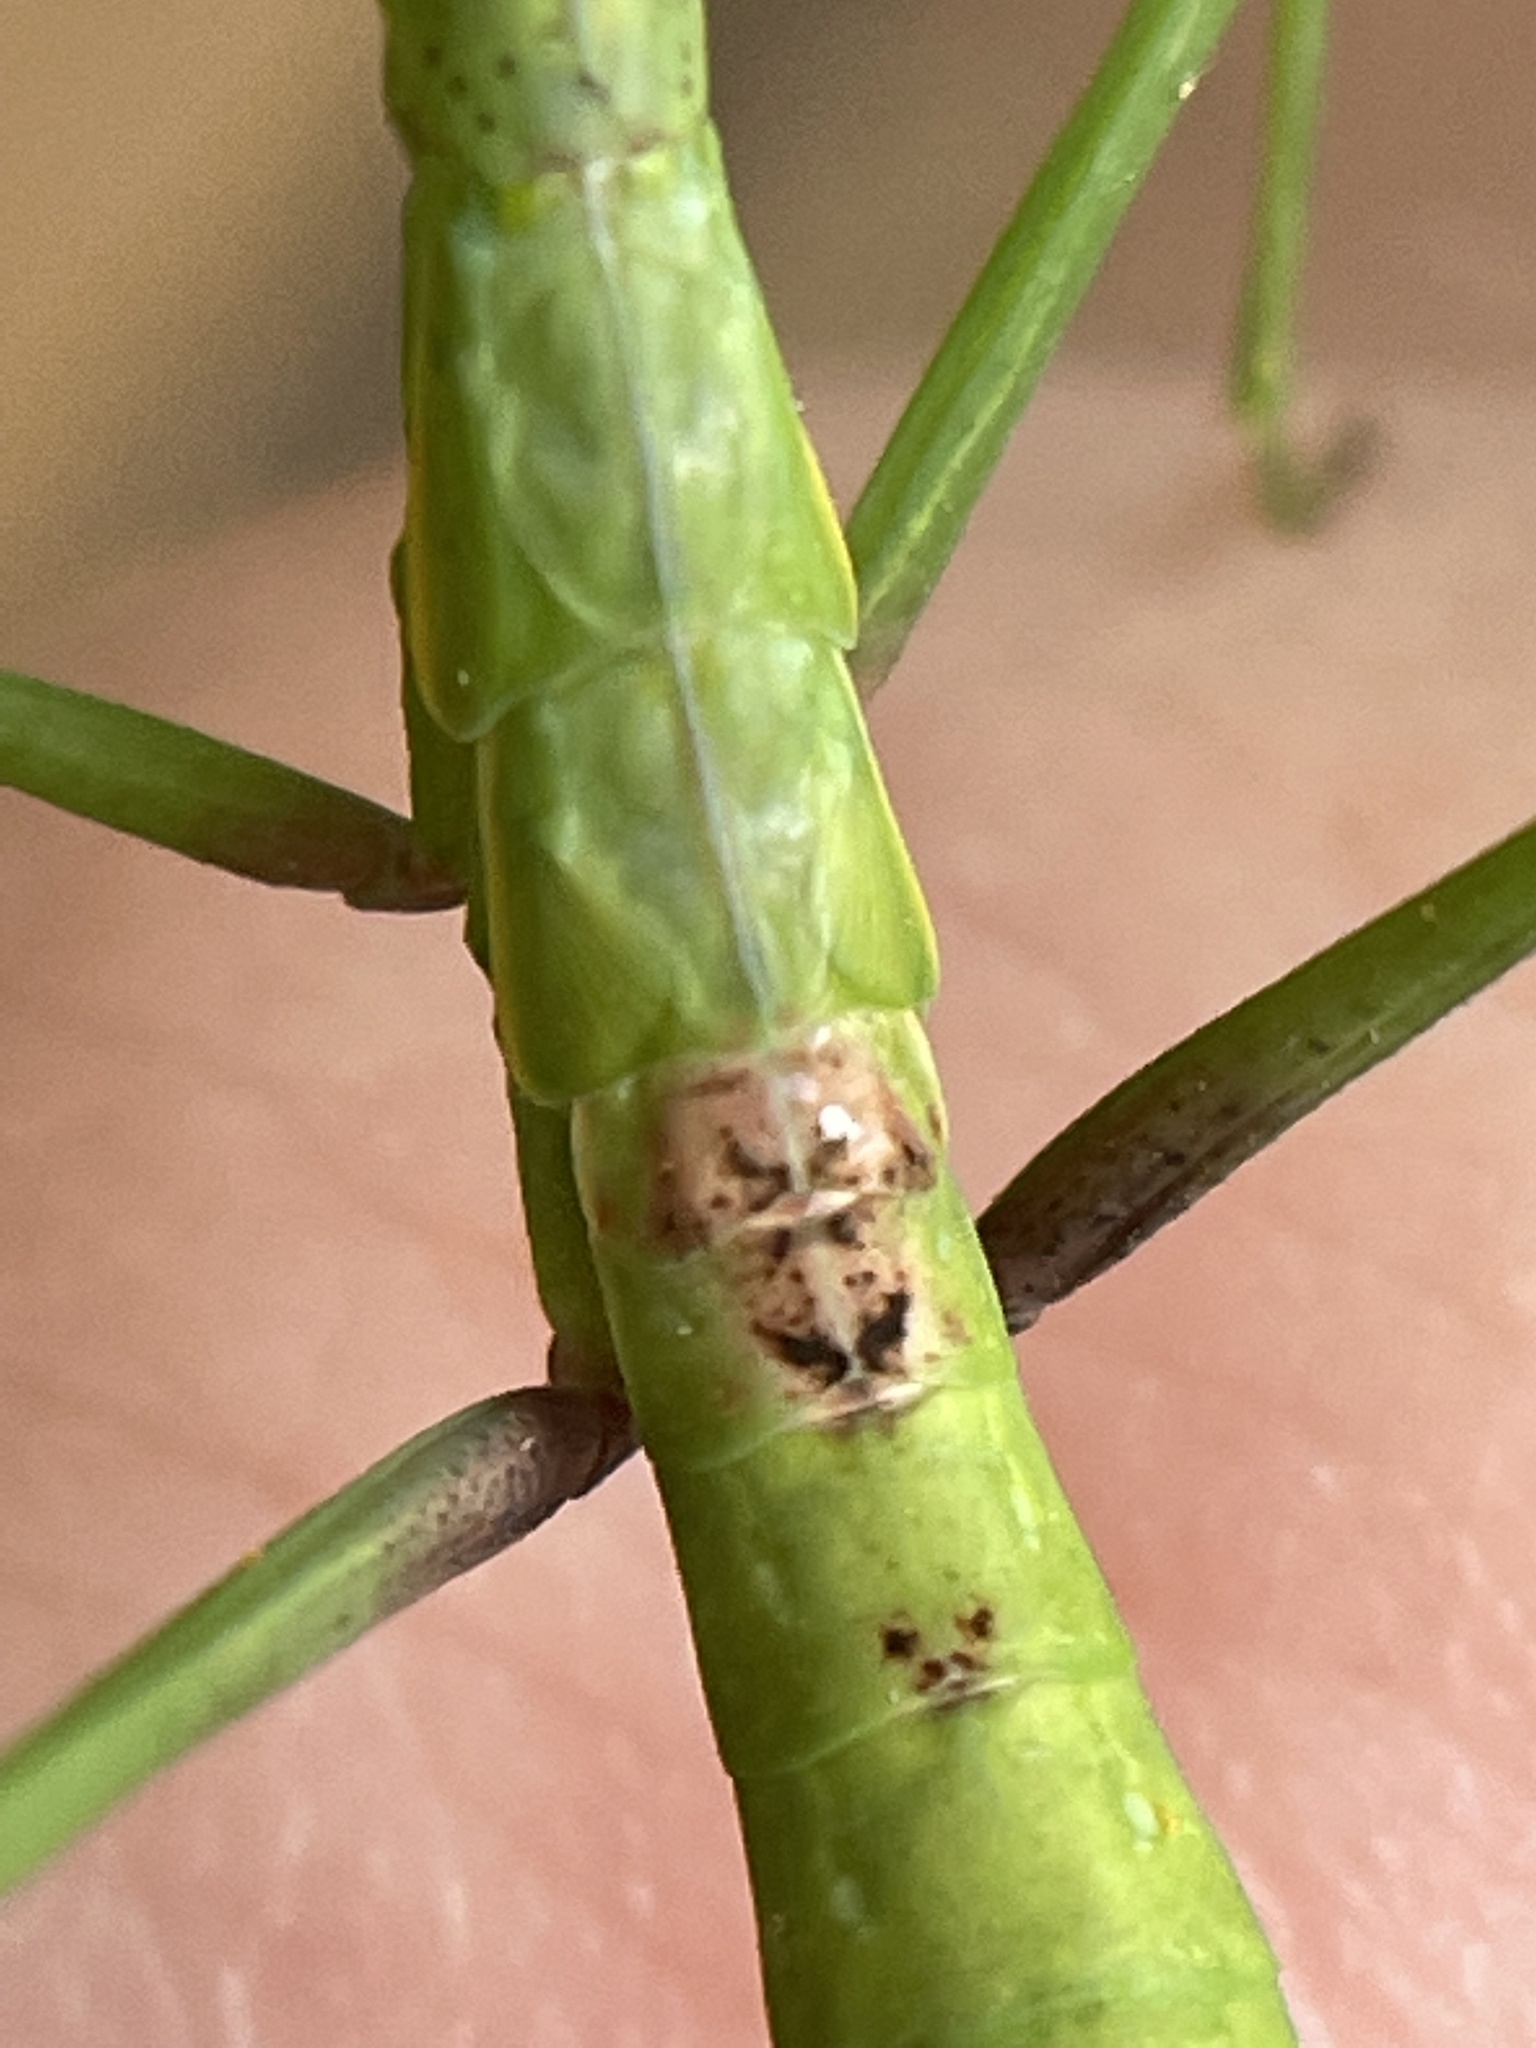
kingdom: Animalia
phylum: Arthropoda
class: Insecta
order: Mantodea
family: Mantidae
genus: Stagmomantis
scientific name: Stagmomantis carolina
